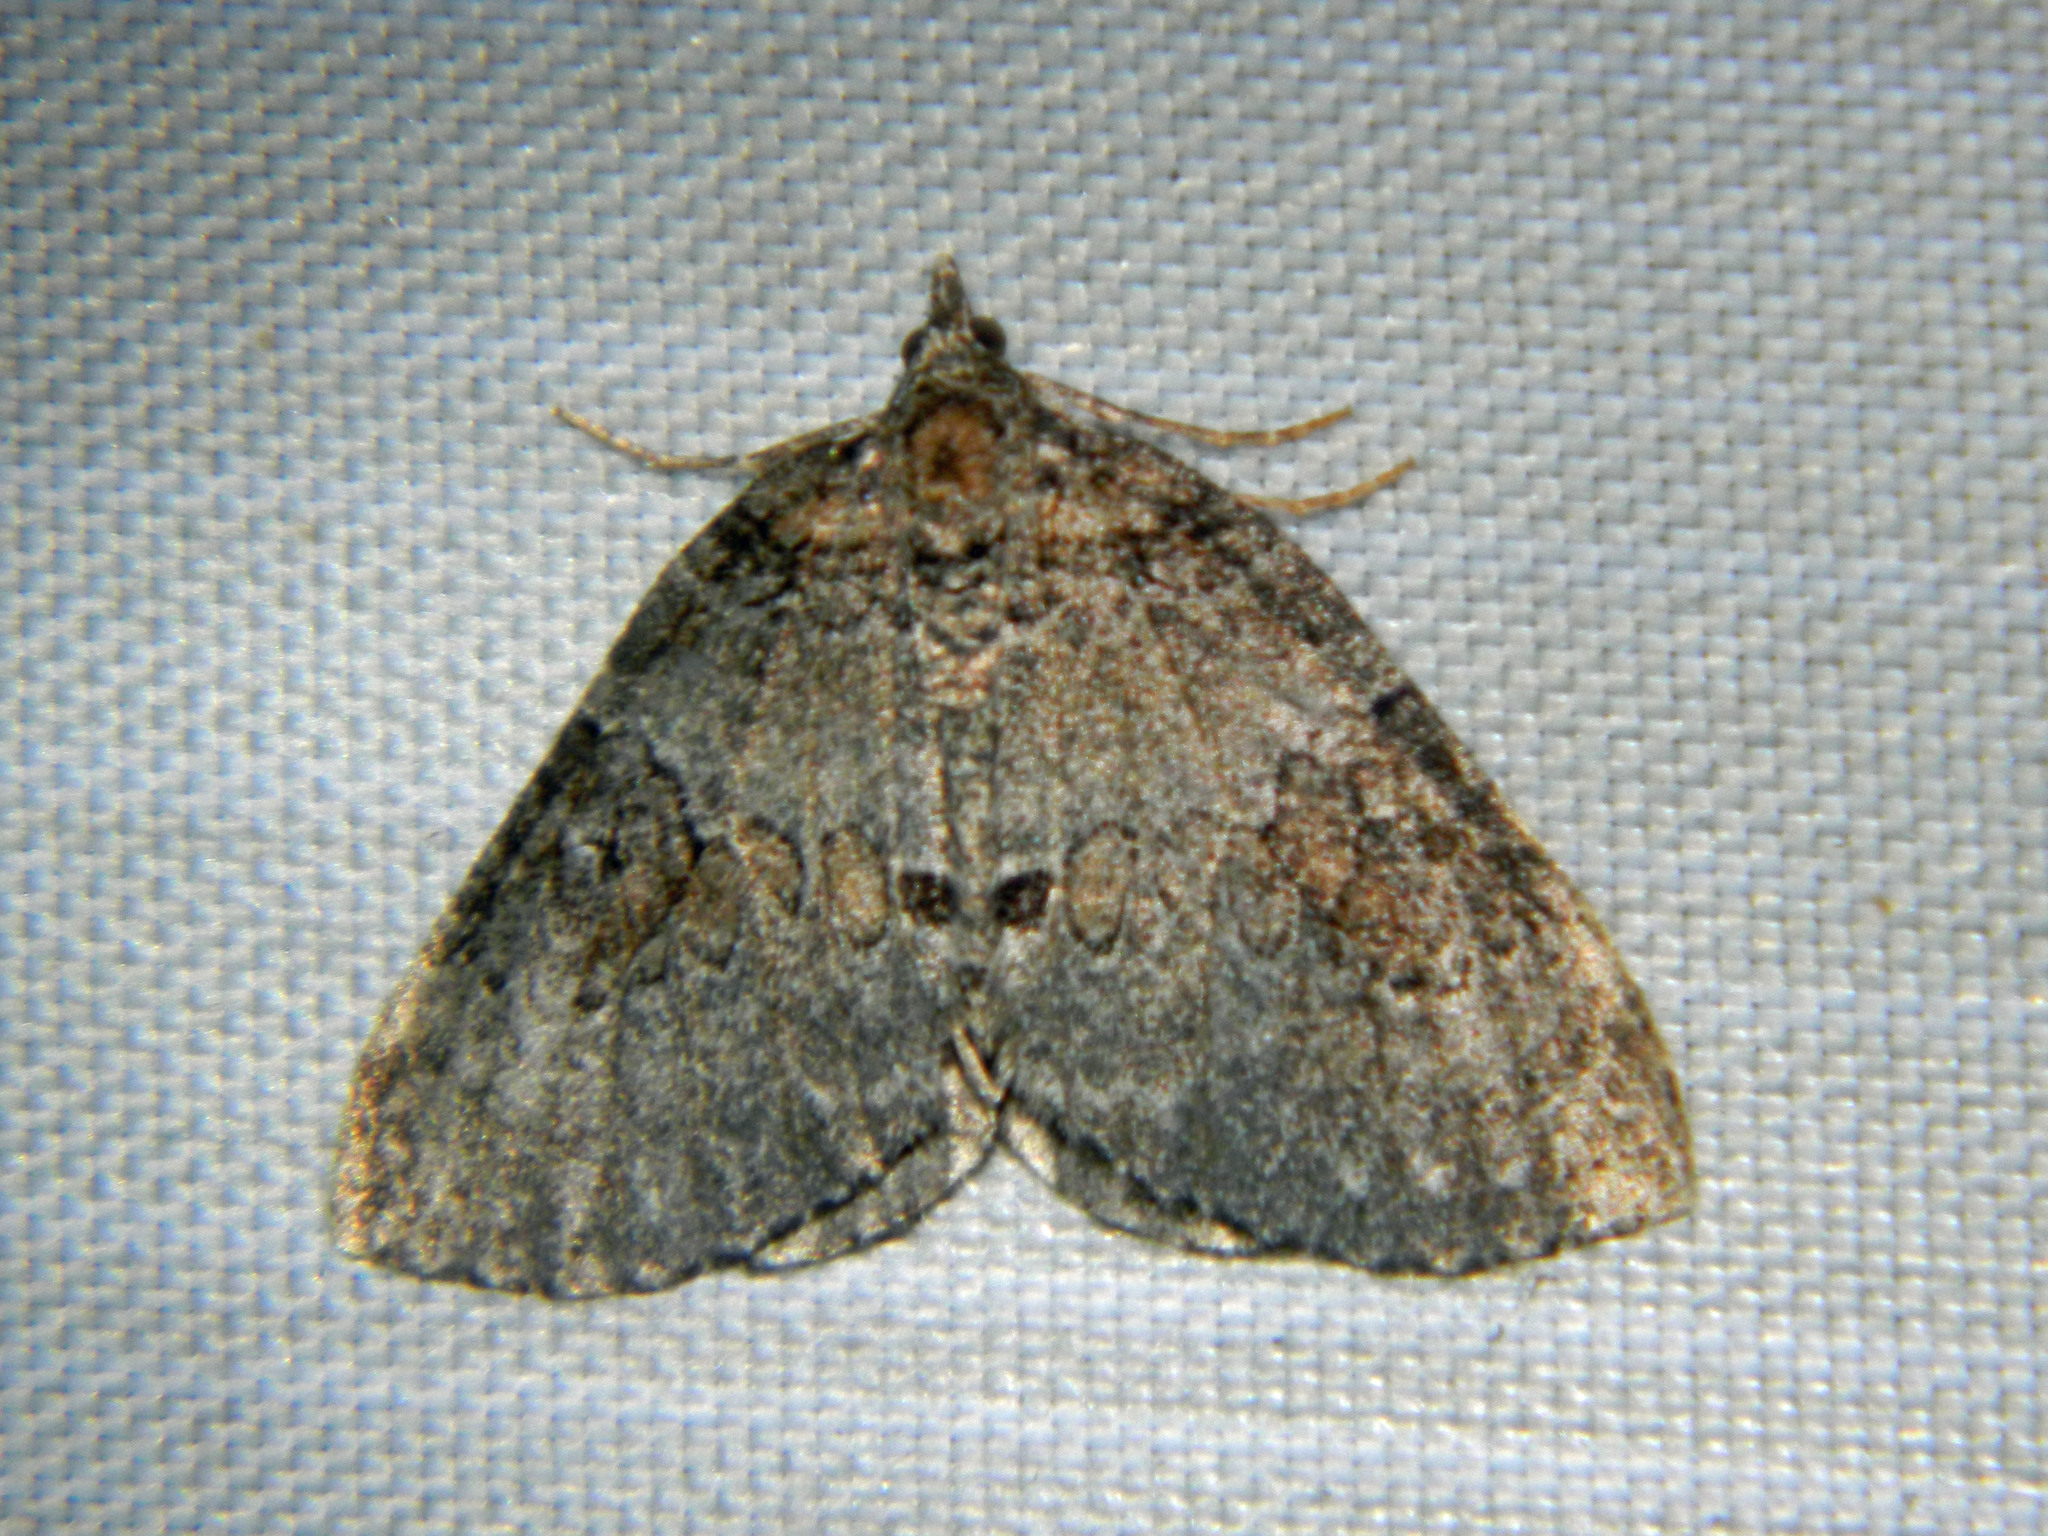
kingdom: Animalia
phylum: Arthropoda
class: Insecta
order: Lepidoptera
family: Geometridae
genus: Plemyria
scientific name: Plemyria georgii
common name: George's carpet moth
